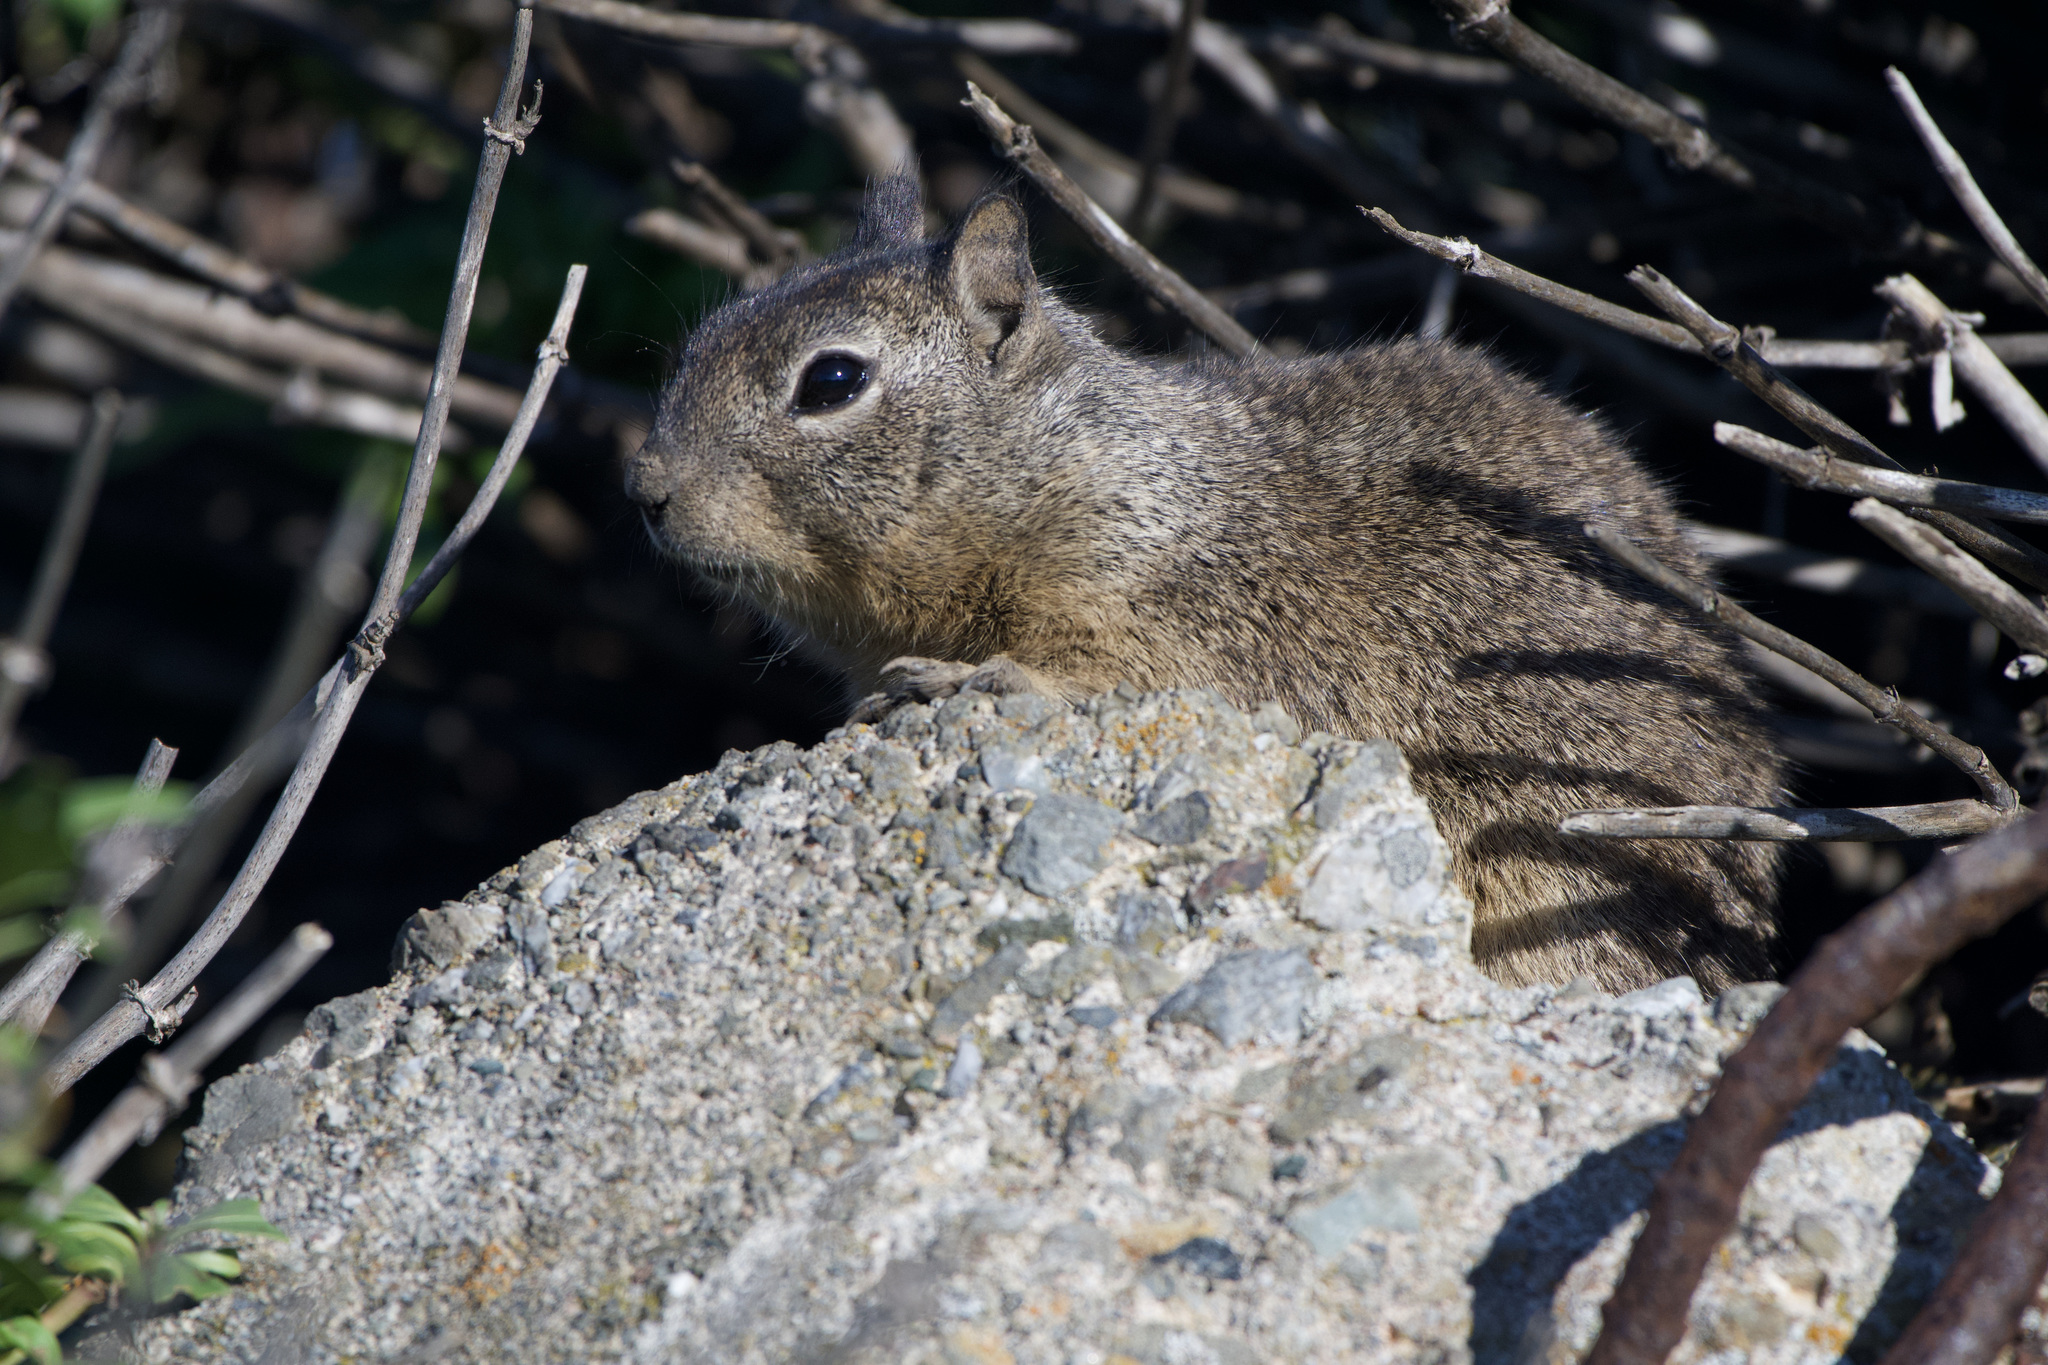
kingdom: Animalia
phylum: Chordata
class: Mammalia
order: Rodentia
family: Sciuridae
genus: Otospermophilus
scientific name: Otospermophilus beecheyi
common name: California ground squirrel
